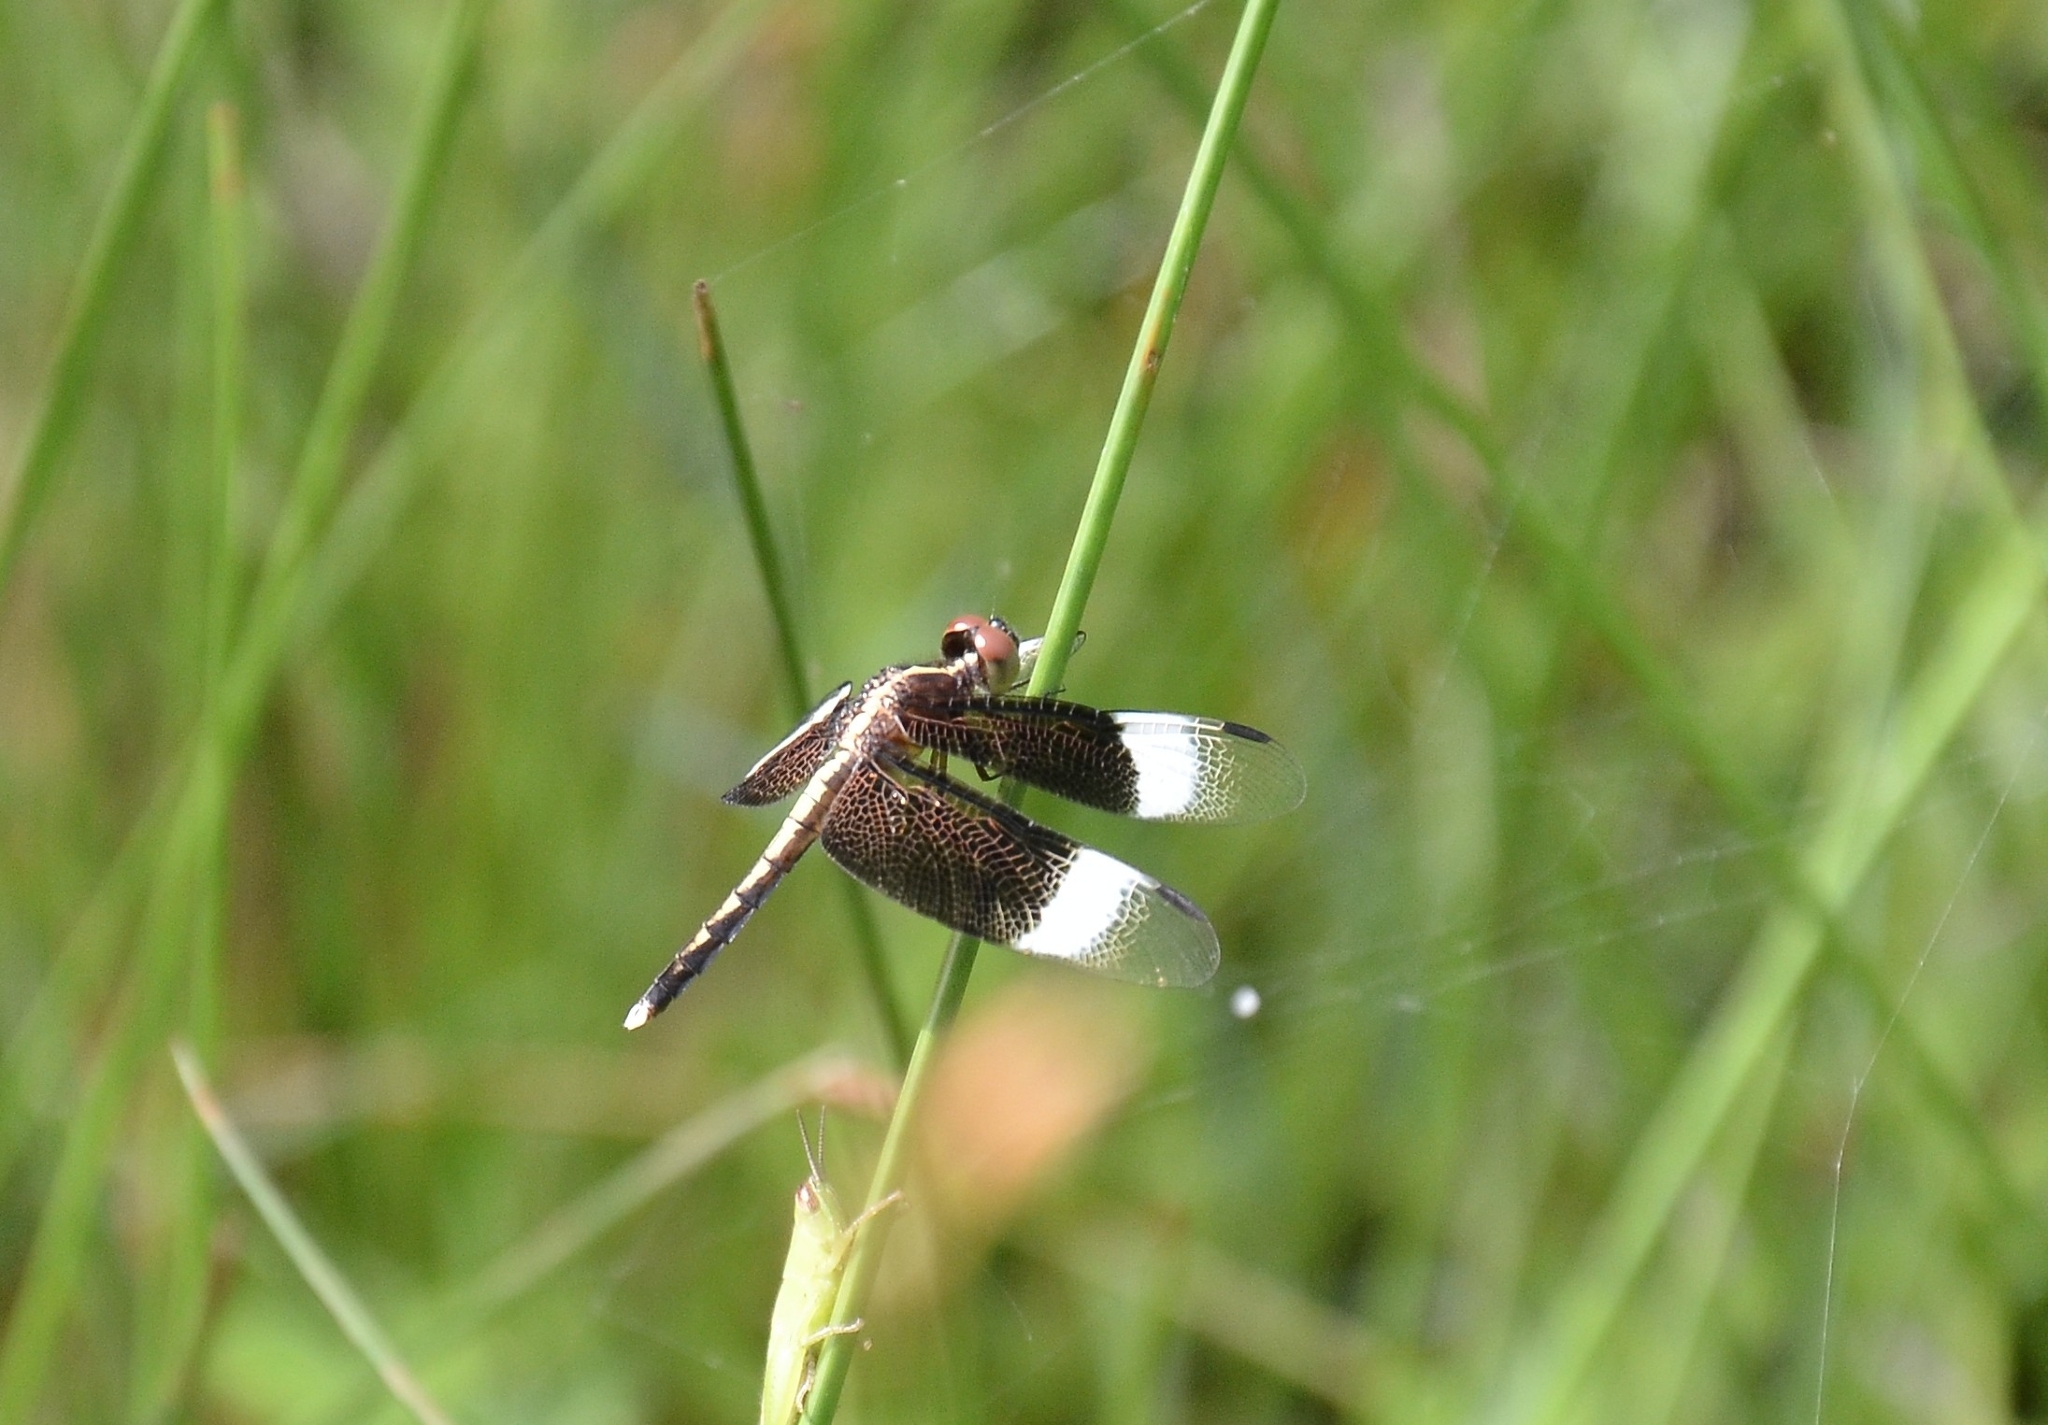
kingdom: Animalia
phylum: Arthropoda
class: Insecta
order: Odonata
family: Libellulidae
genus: Neurothemis
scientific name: Neurothemis tullia
